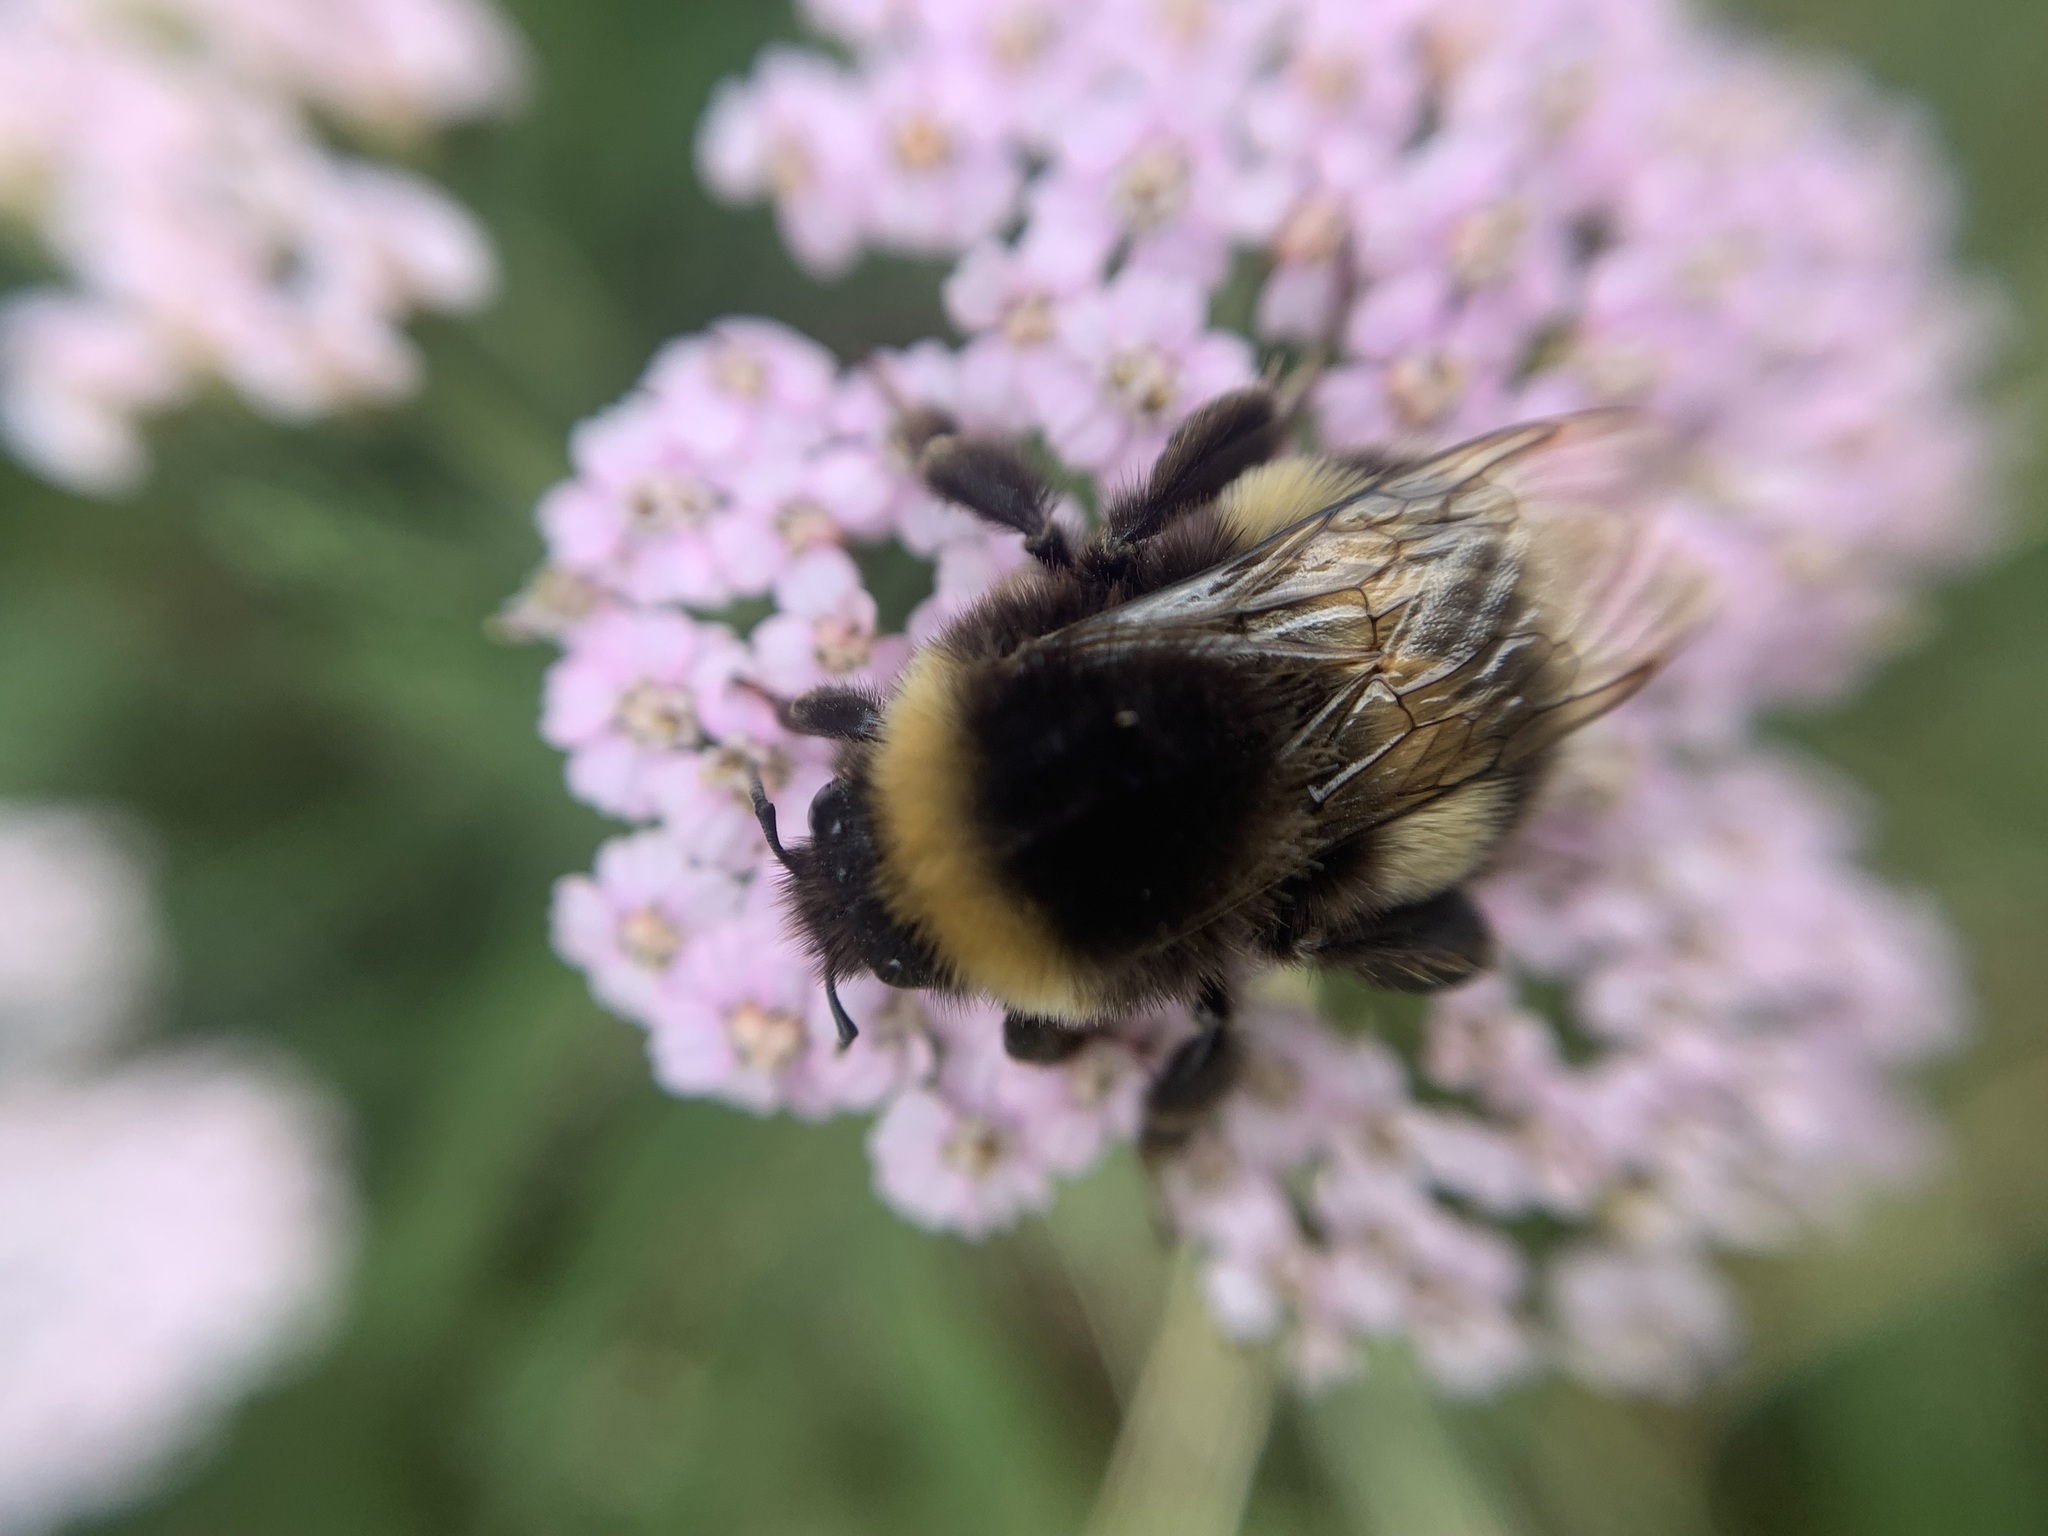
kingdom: Animalia
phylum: Arthropoda
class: Insecta
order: Hymenoptera
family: Apidae
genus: Bombus
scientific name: Bombus terrestris
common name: Buff-tailed bumblebee
